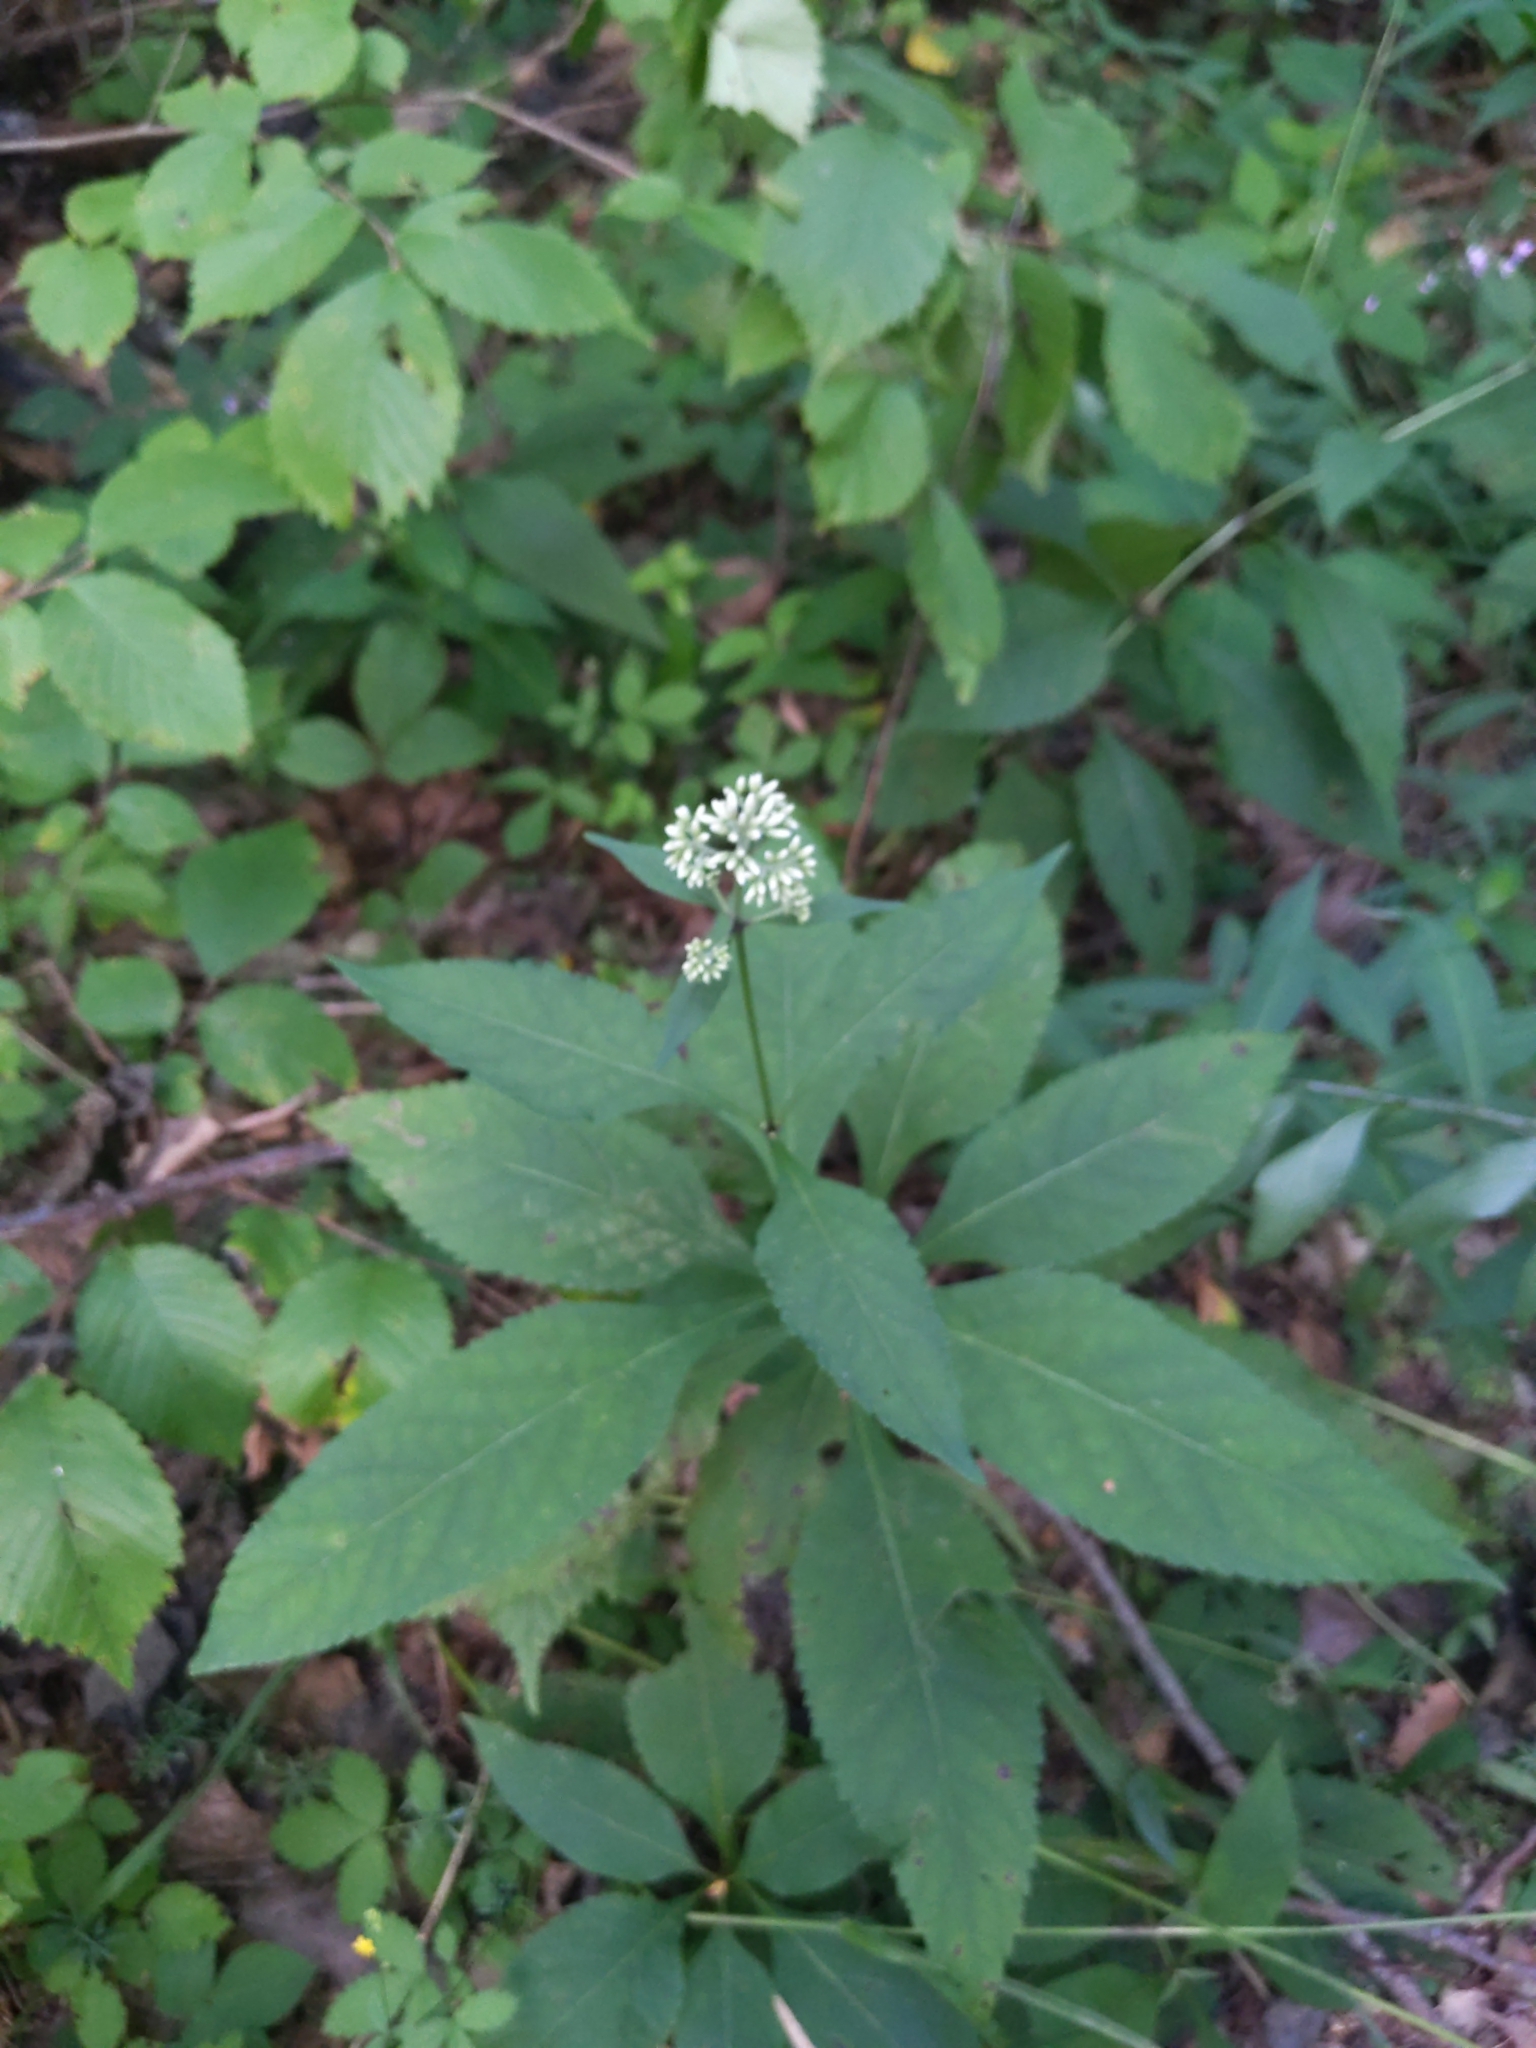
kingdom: Plantae
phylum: Tracheophyta
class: Magnoliopsida
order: Asterales
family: Asteraceae
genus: Eutrochium
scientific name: Eutrochium purpureum
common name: Gravelroot
